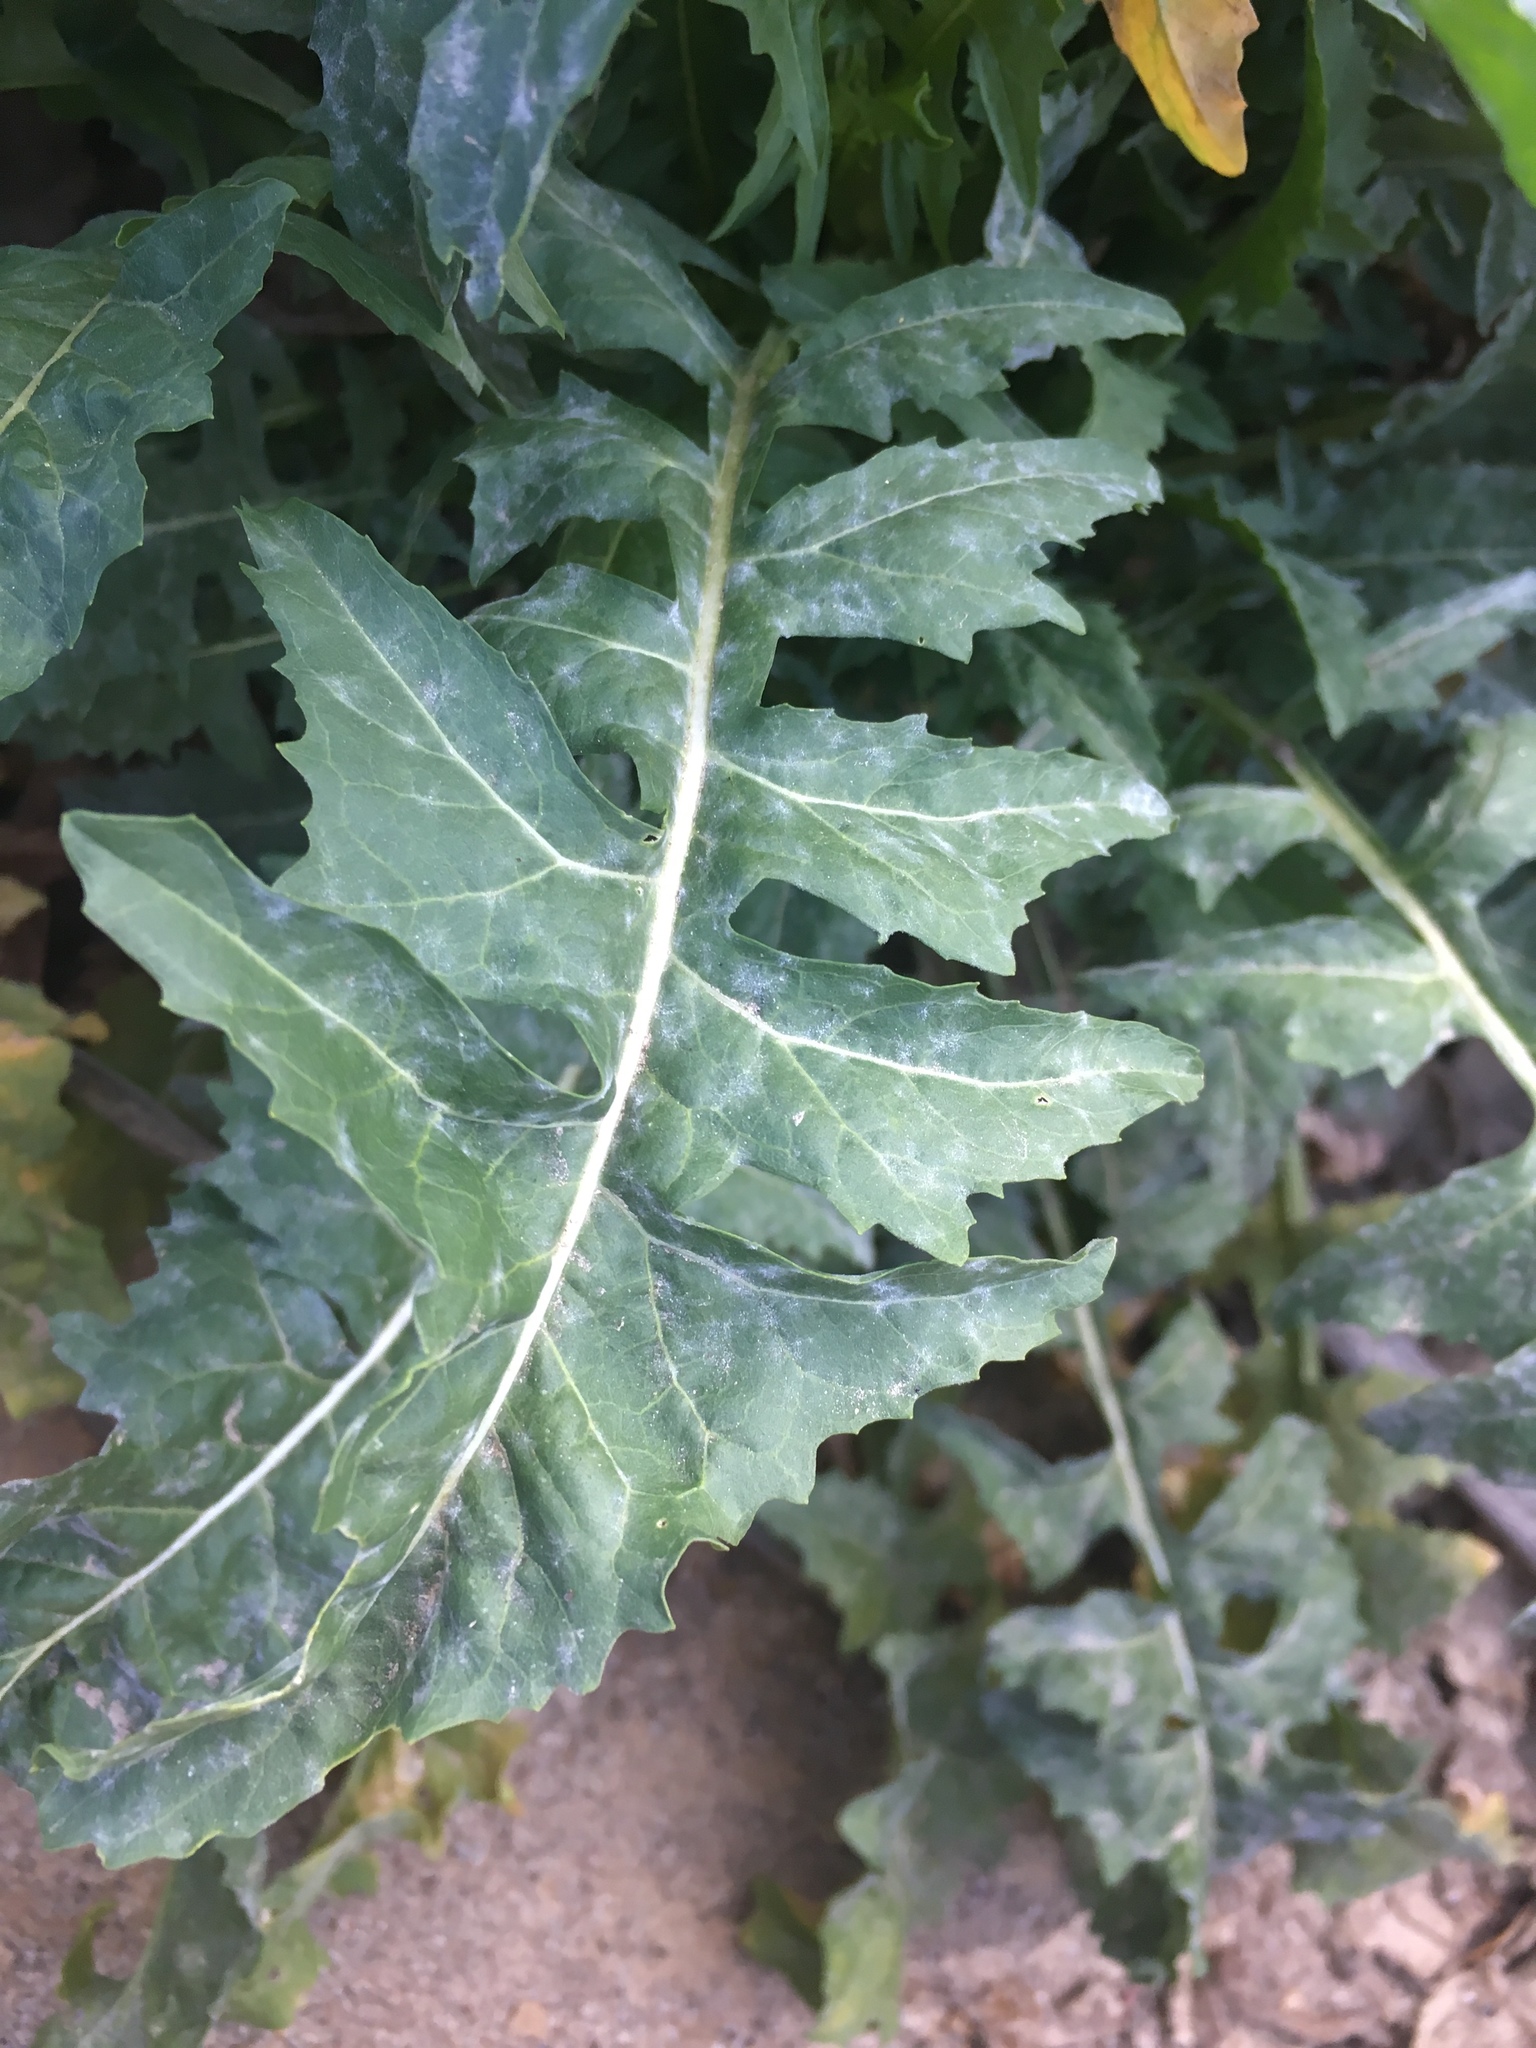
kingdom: Plantae
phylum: Tracheophyta
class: Magnoliopsida
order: Brassicales
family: Brassicaceae
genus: Sisymbrium
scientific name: Sisymbrium irio
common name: London rocket
